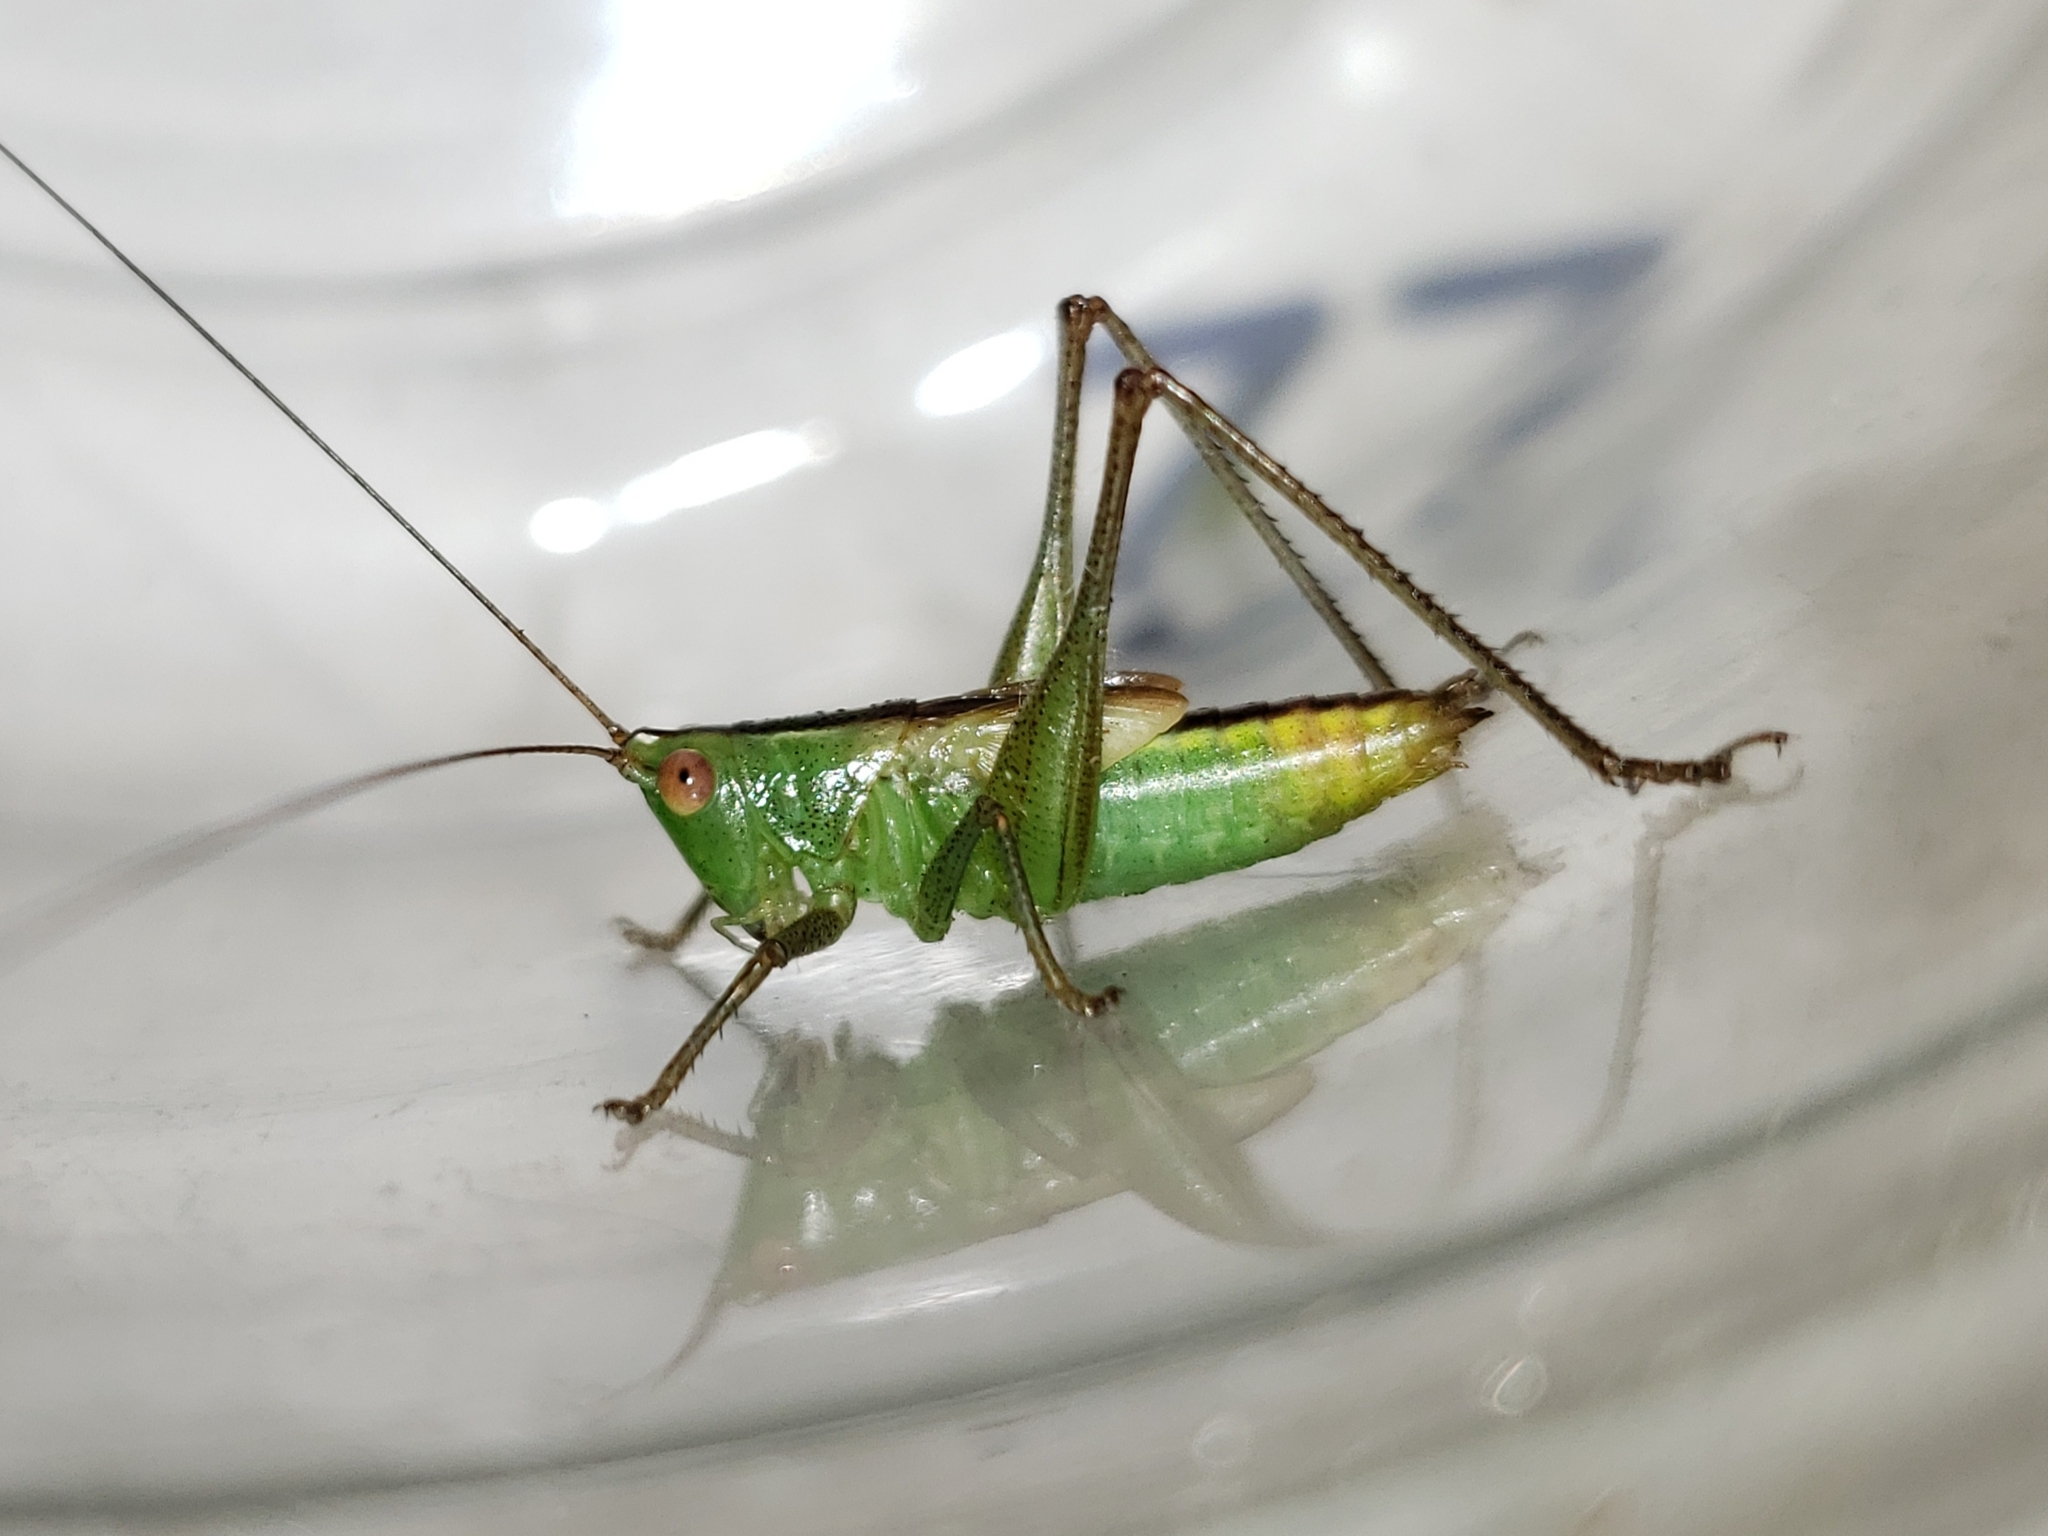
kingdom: Animalia
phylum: Arthropoda
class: Insecta
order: Orthoptera
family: Tettigoniidae
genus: Conocephalus
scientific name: Conocephalus cinereus
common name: Caribbean meadow katydid
